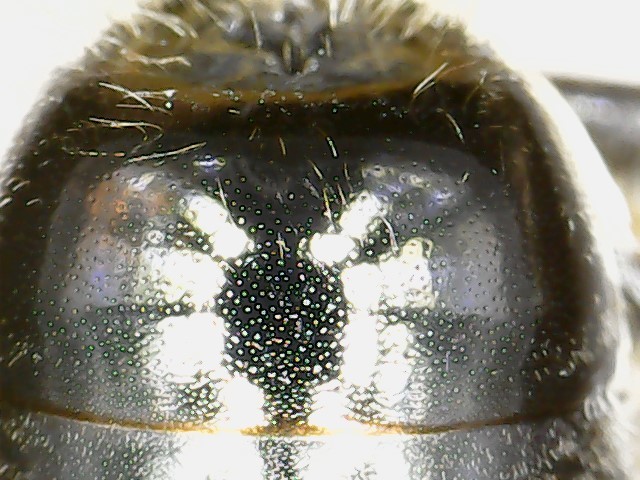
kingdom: Animalia
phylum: Arthropoda
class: Insecta
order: Hymenoptera
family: Colletidae
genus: Colletes
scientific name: Colletes thoracicus
